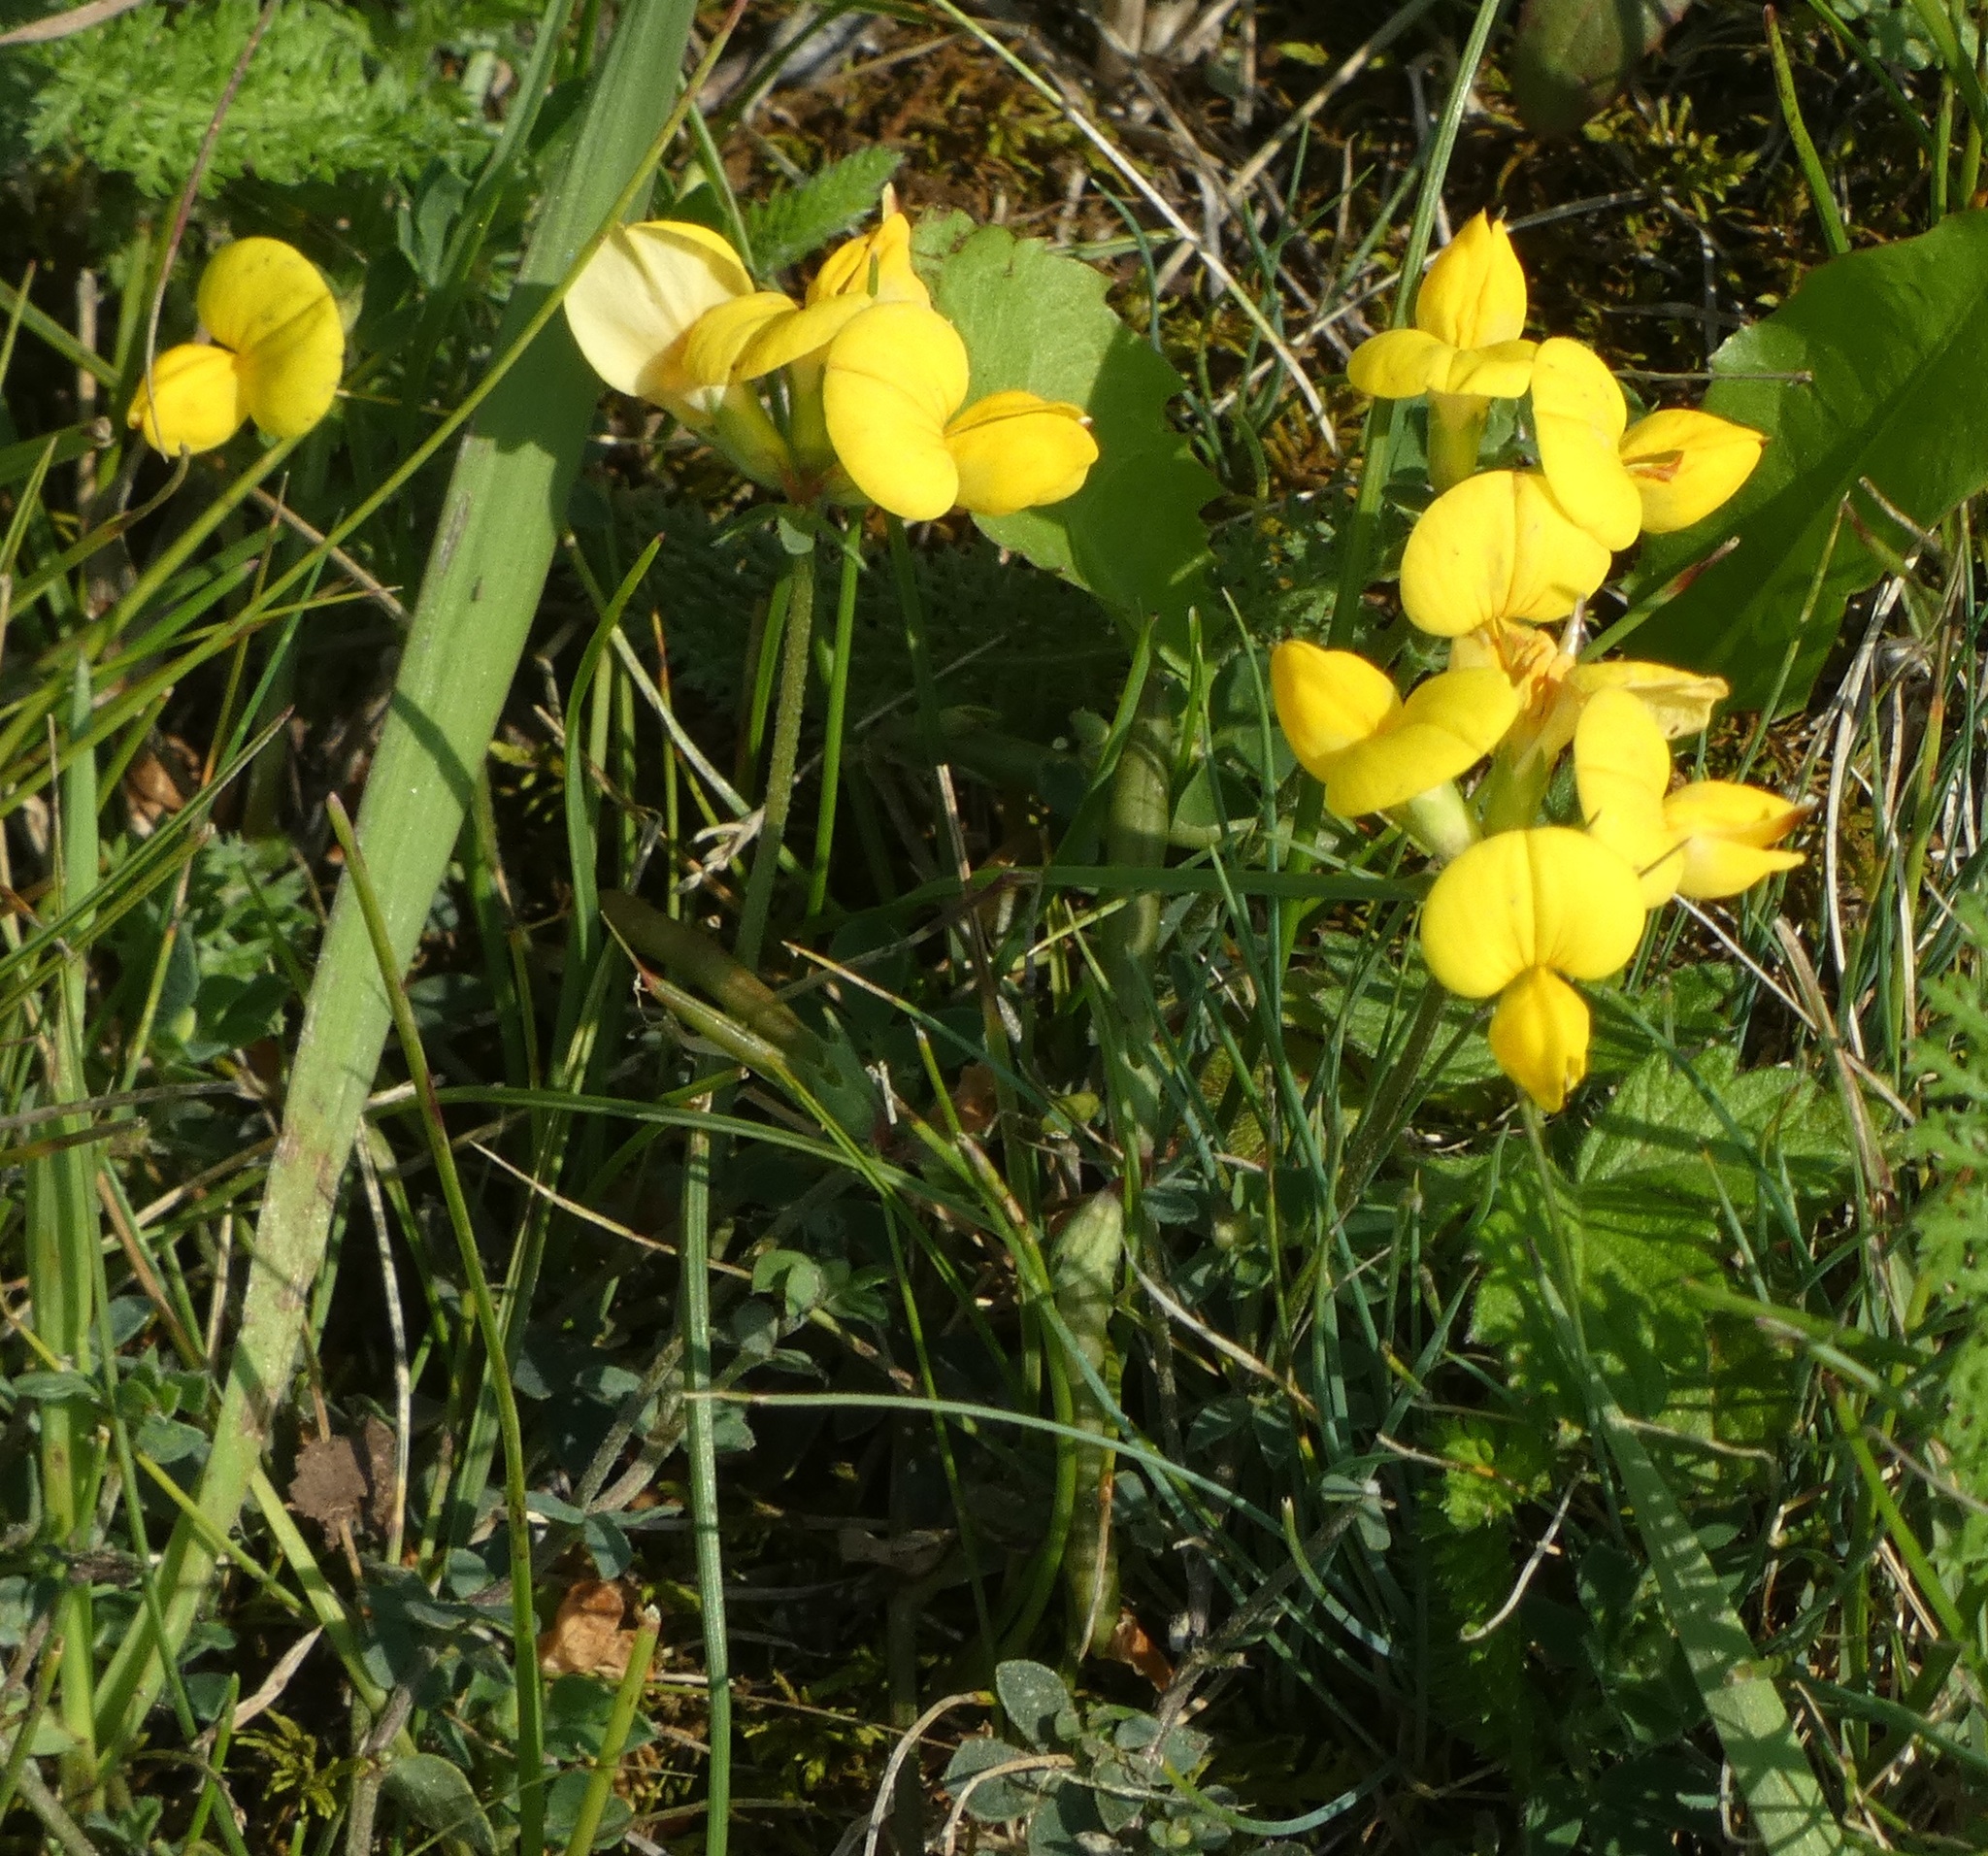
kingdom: Plantae
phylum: Tracheophyta
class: Magnoliopsida
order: Fabales
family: Fabaceae
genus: Lotus
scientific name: Lotus corniculatus
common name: Common bird's-foot-trefoil
